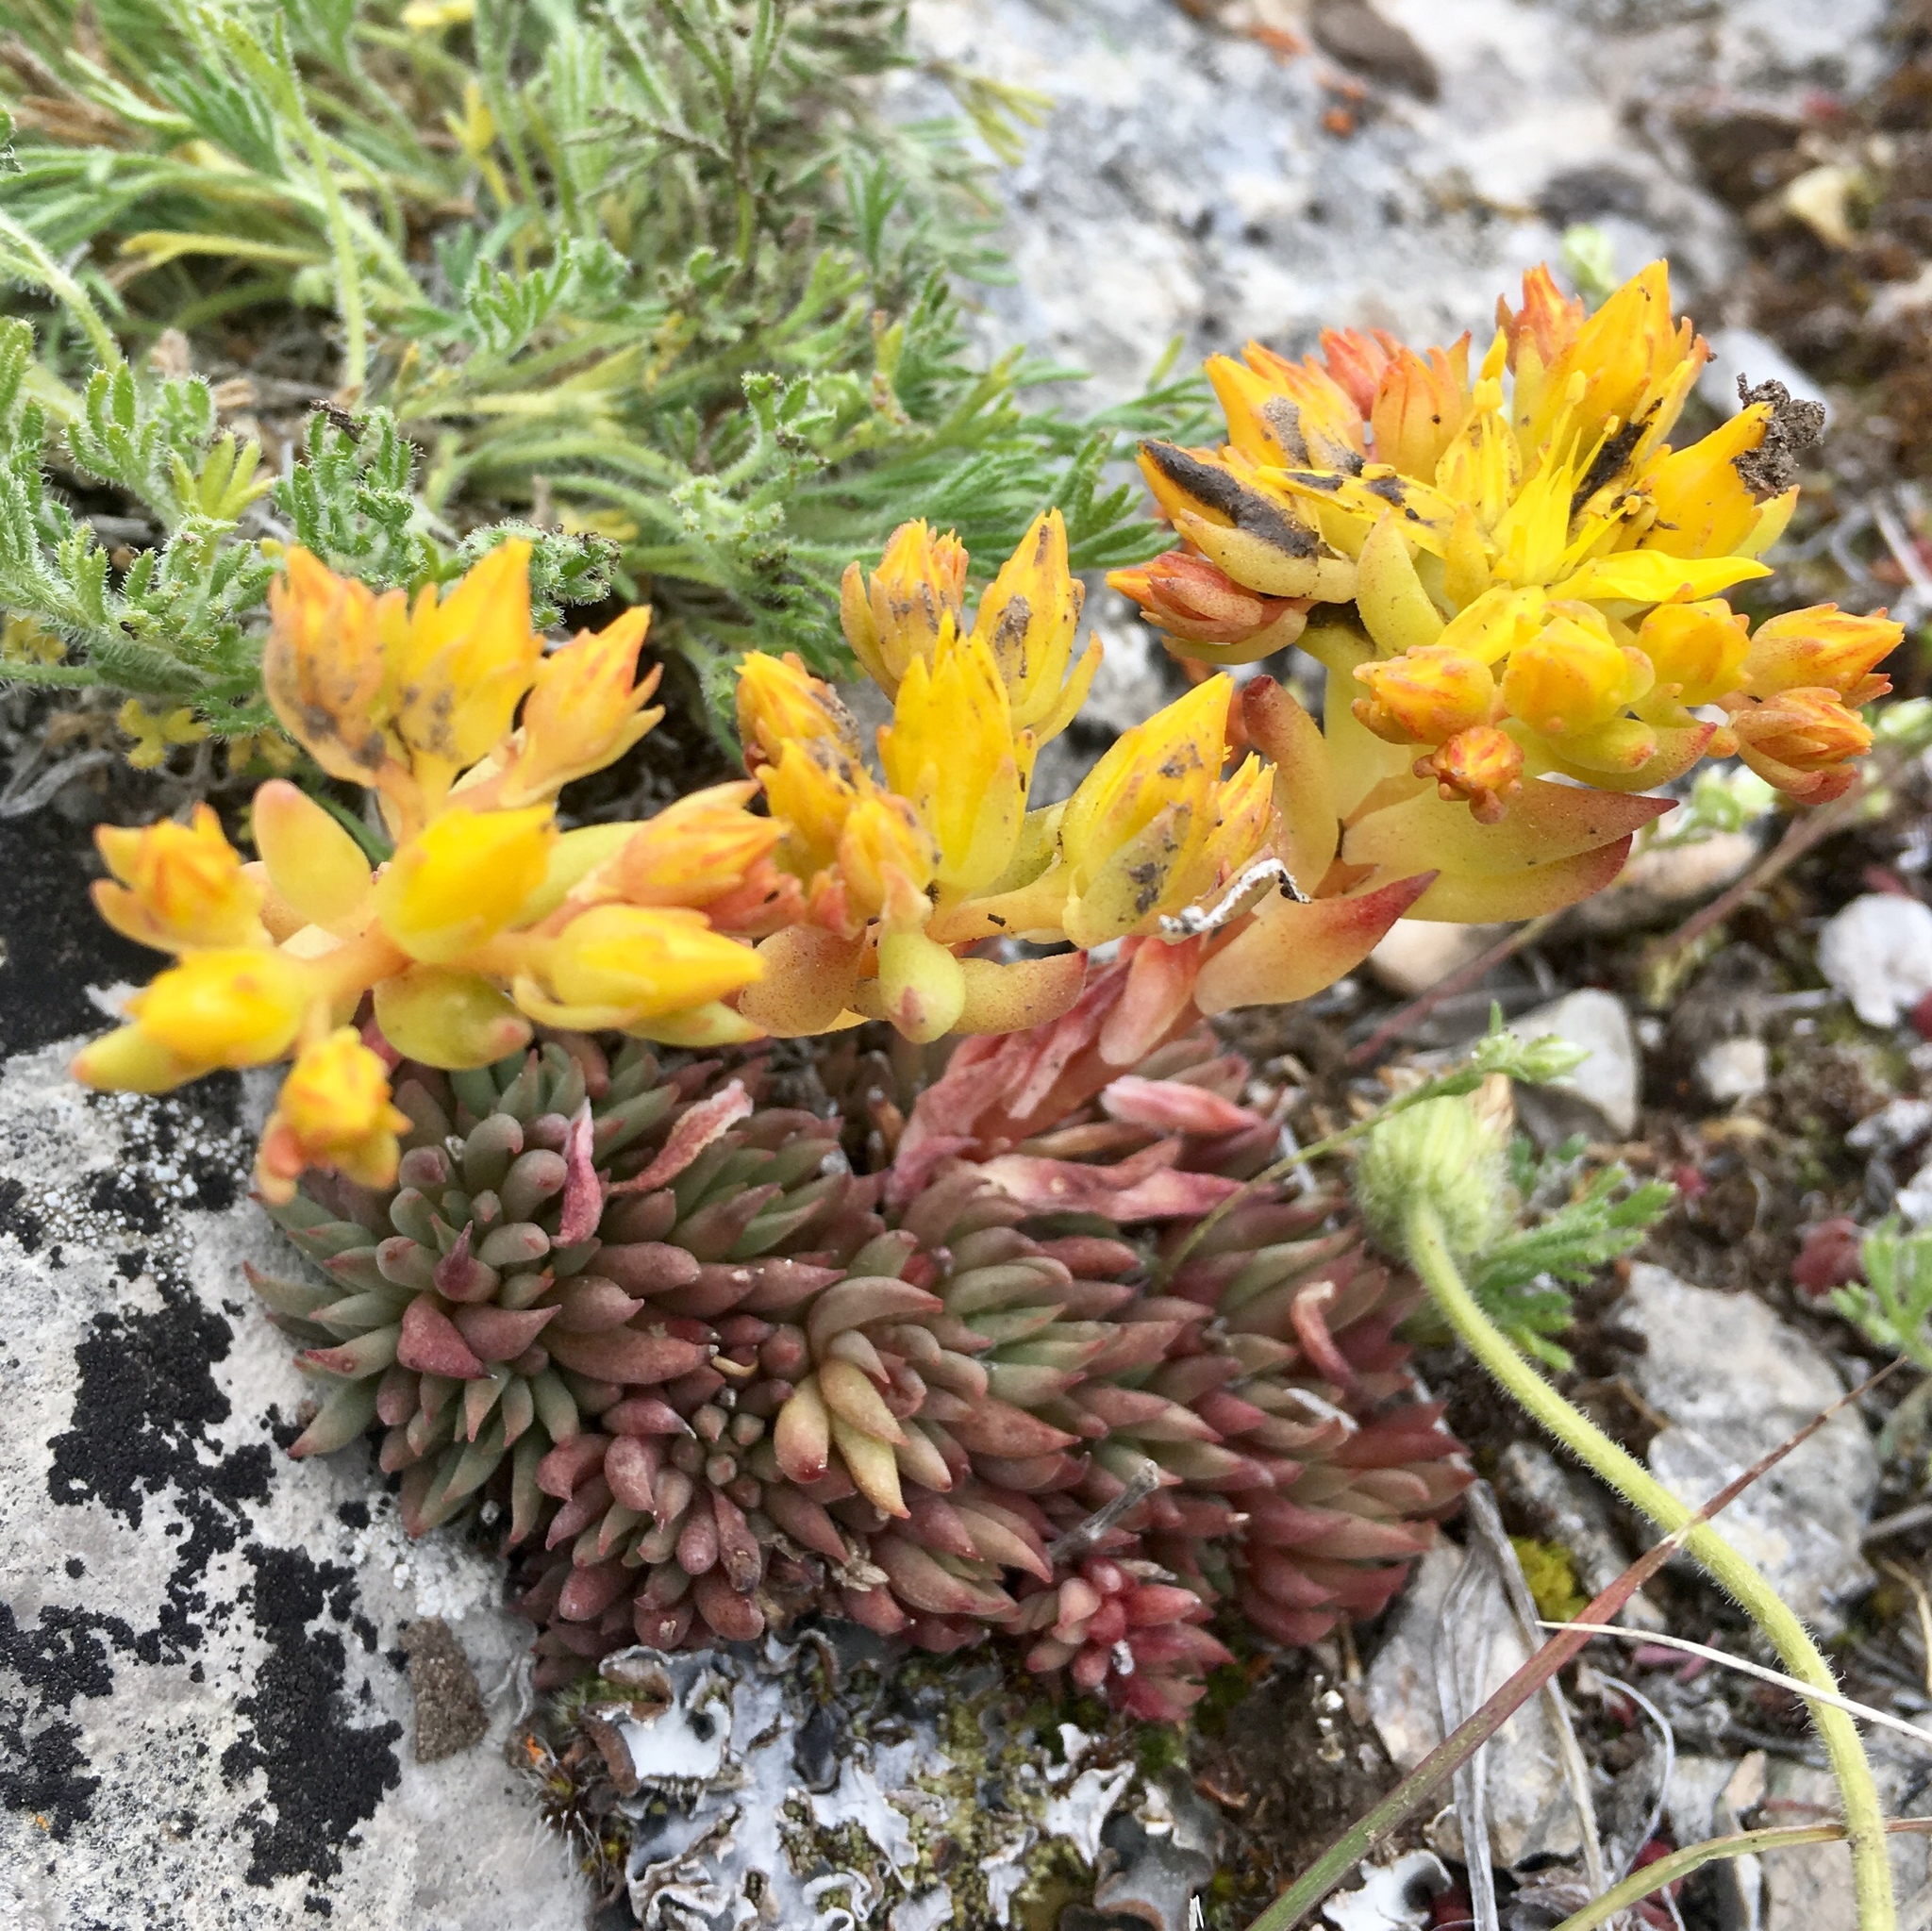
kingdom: Plantae
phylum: Tracheophyta
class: Magnoliopsida
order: Saxifragales
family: Crassulaceae
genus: Sedum
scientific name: Sedum lanceolatum
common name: Common stonecrop
